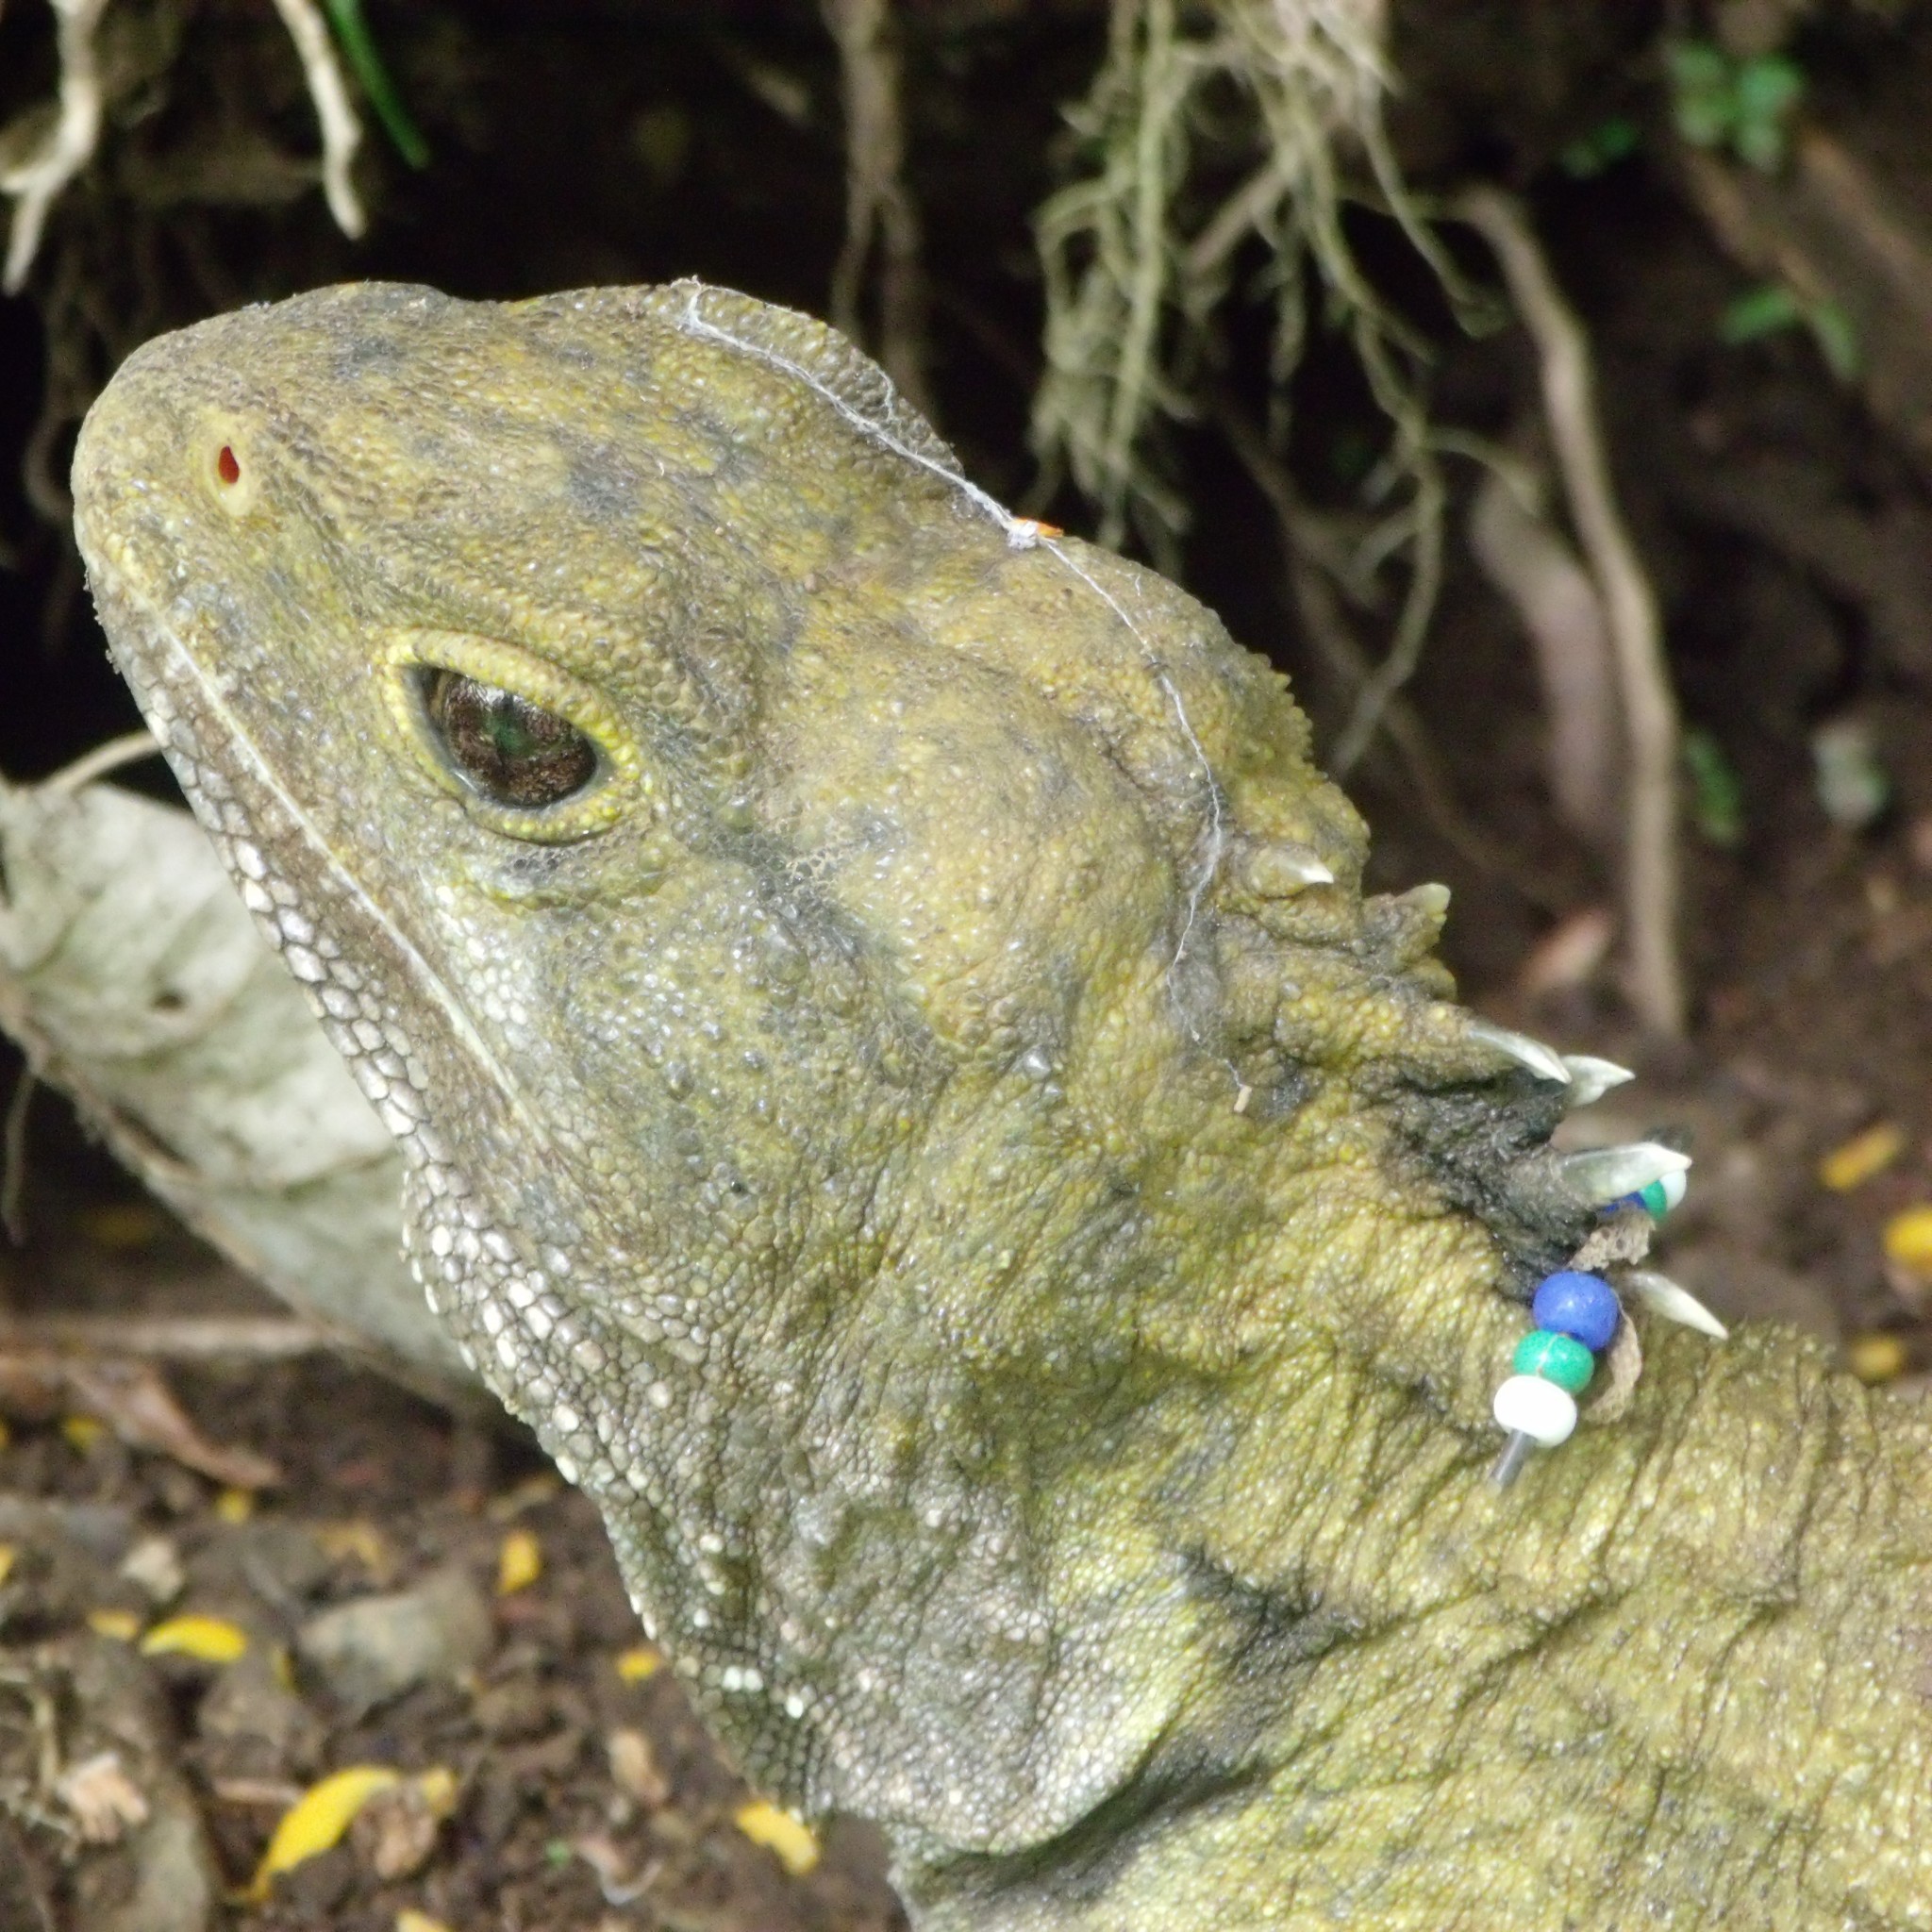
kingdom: Animalia
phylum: Chordata
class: Sphenodontia
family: Sphenodontidae
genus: Sphenodon
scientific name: Sphenodon punctatus
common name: Tuatara
